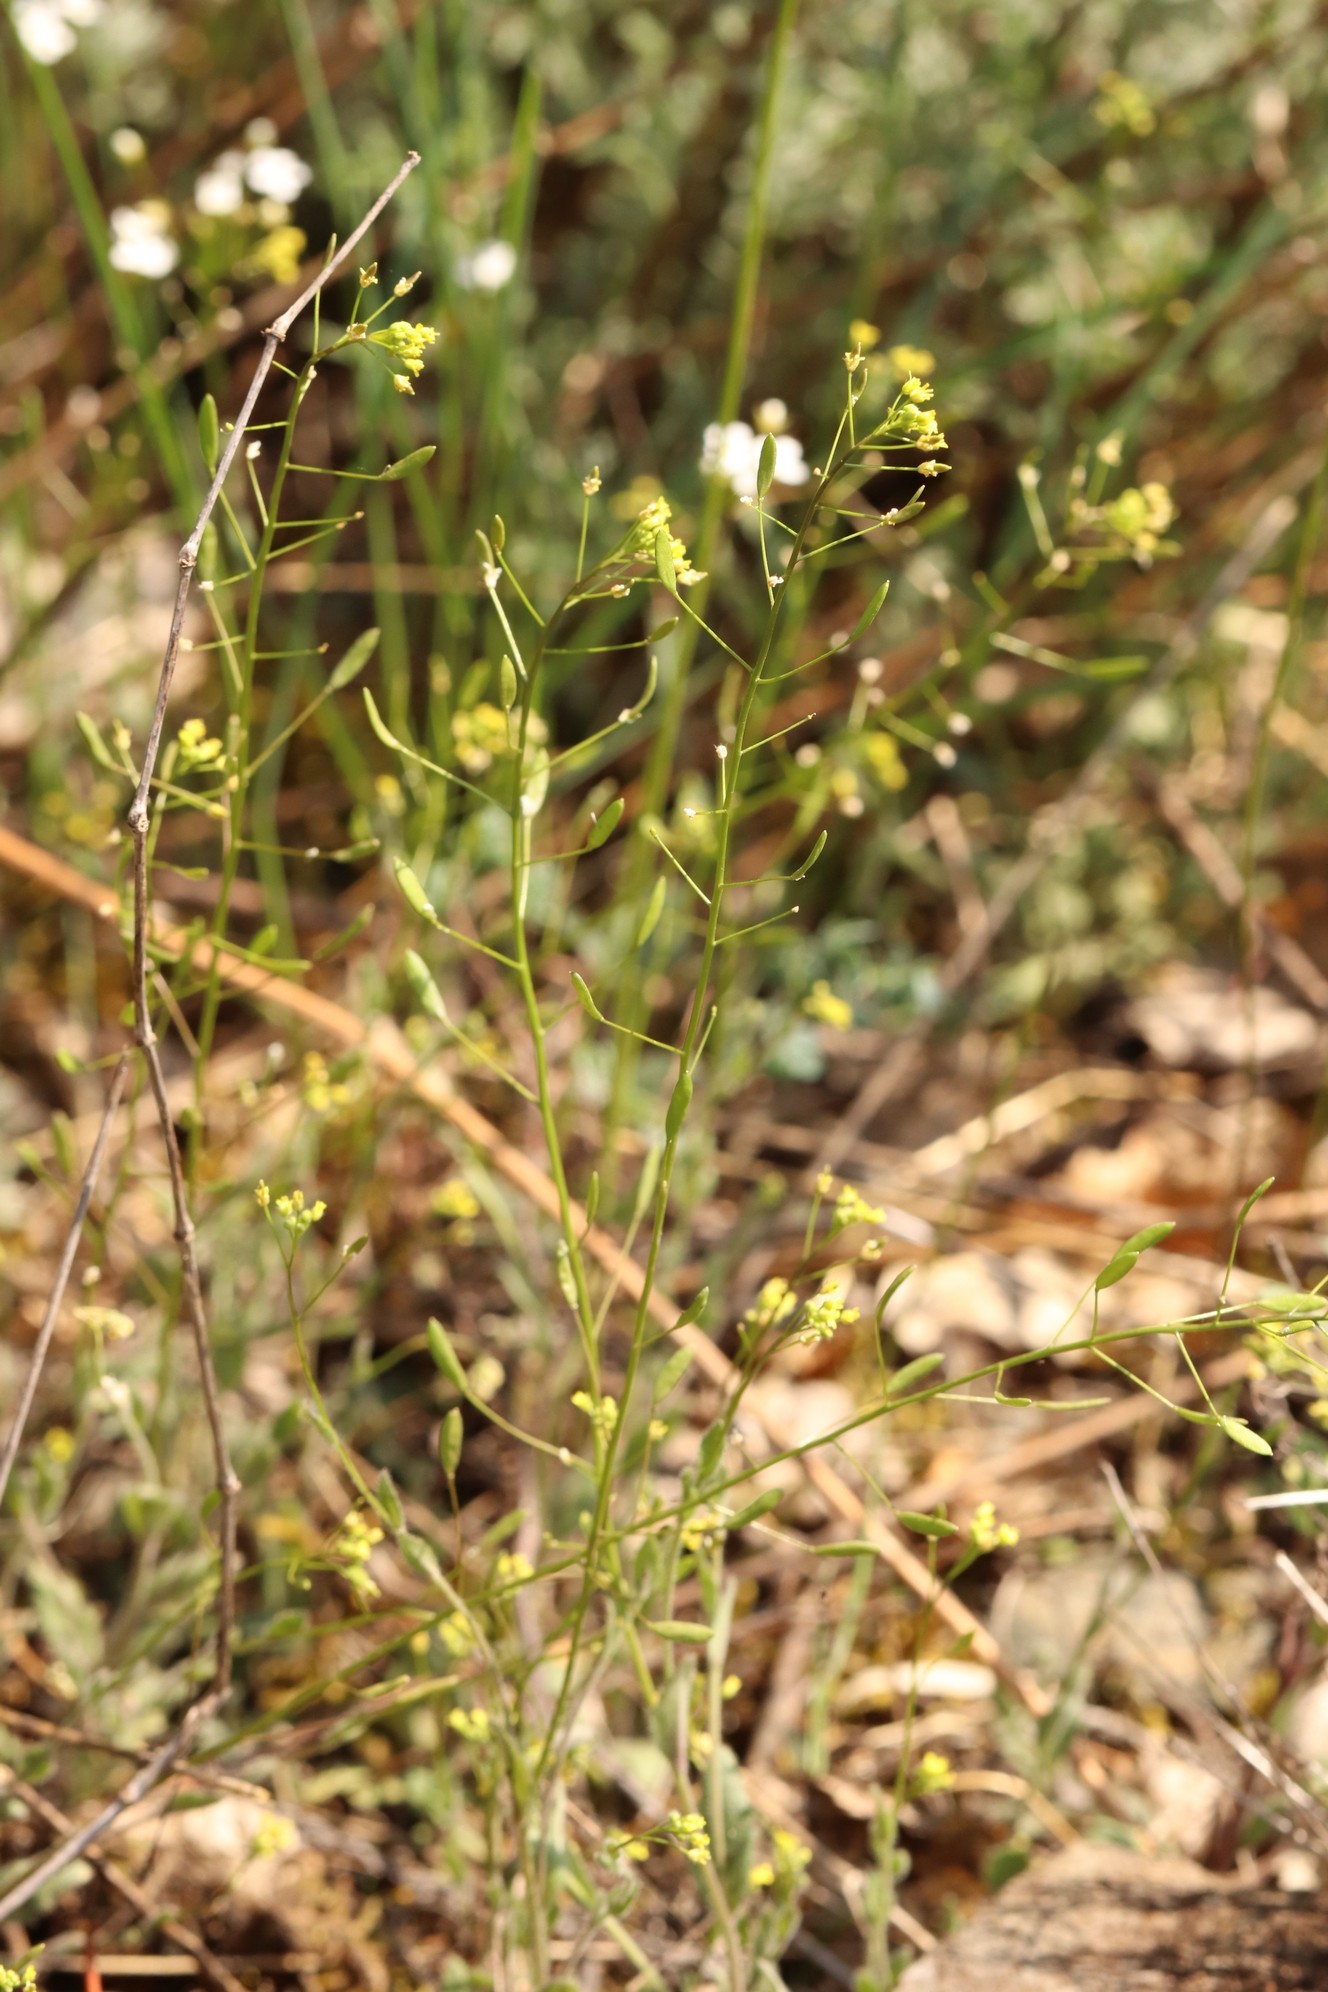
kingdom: Plantae
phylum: Tracheophyta
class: Magnoliopsida
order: Brassicales
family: Brassicaceae
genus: Draba
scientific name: Draba nemorosa
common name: Wood whitlow-grass
